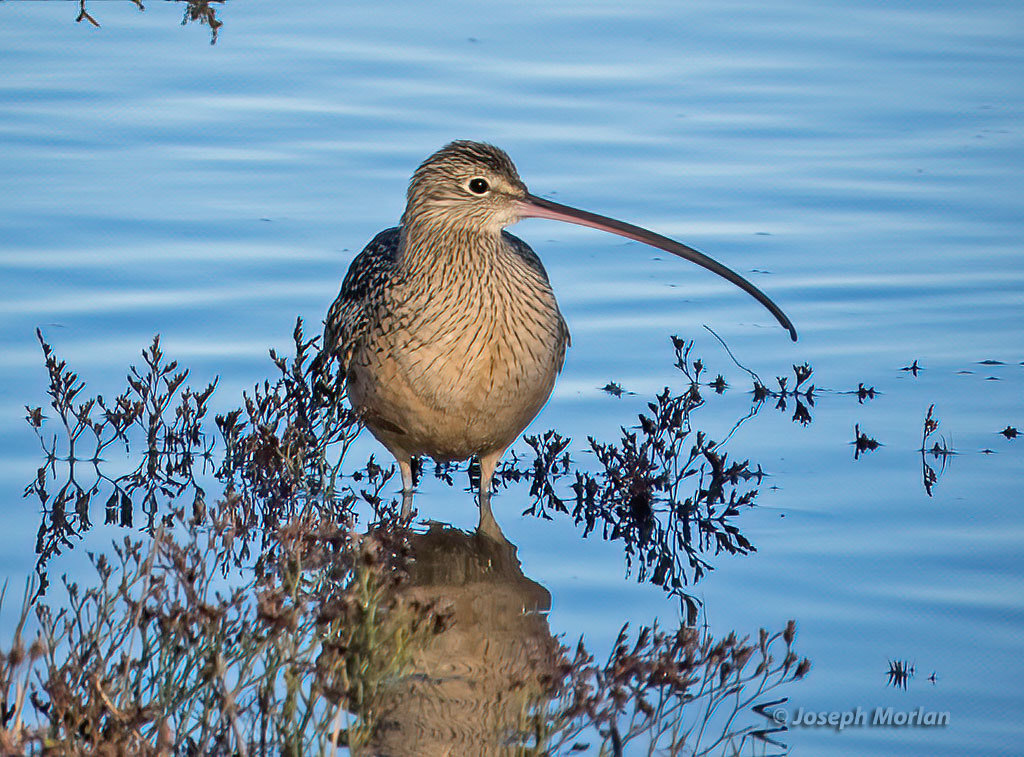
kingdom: Animalia
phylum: Chordata
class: Aves
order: Charadriiformes
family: Scolopacidae
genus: Numenius
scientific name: Numenius americanus
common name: Long-billed curlew
